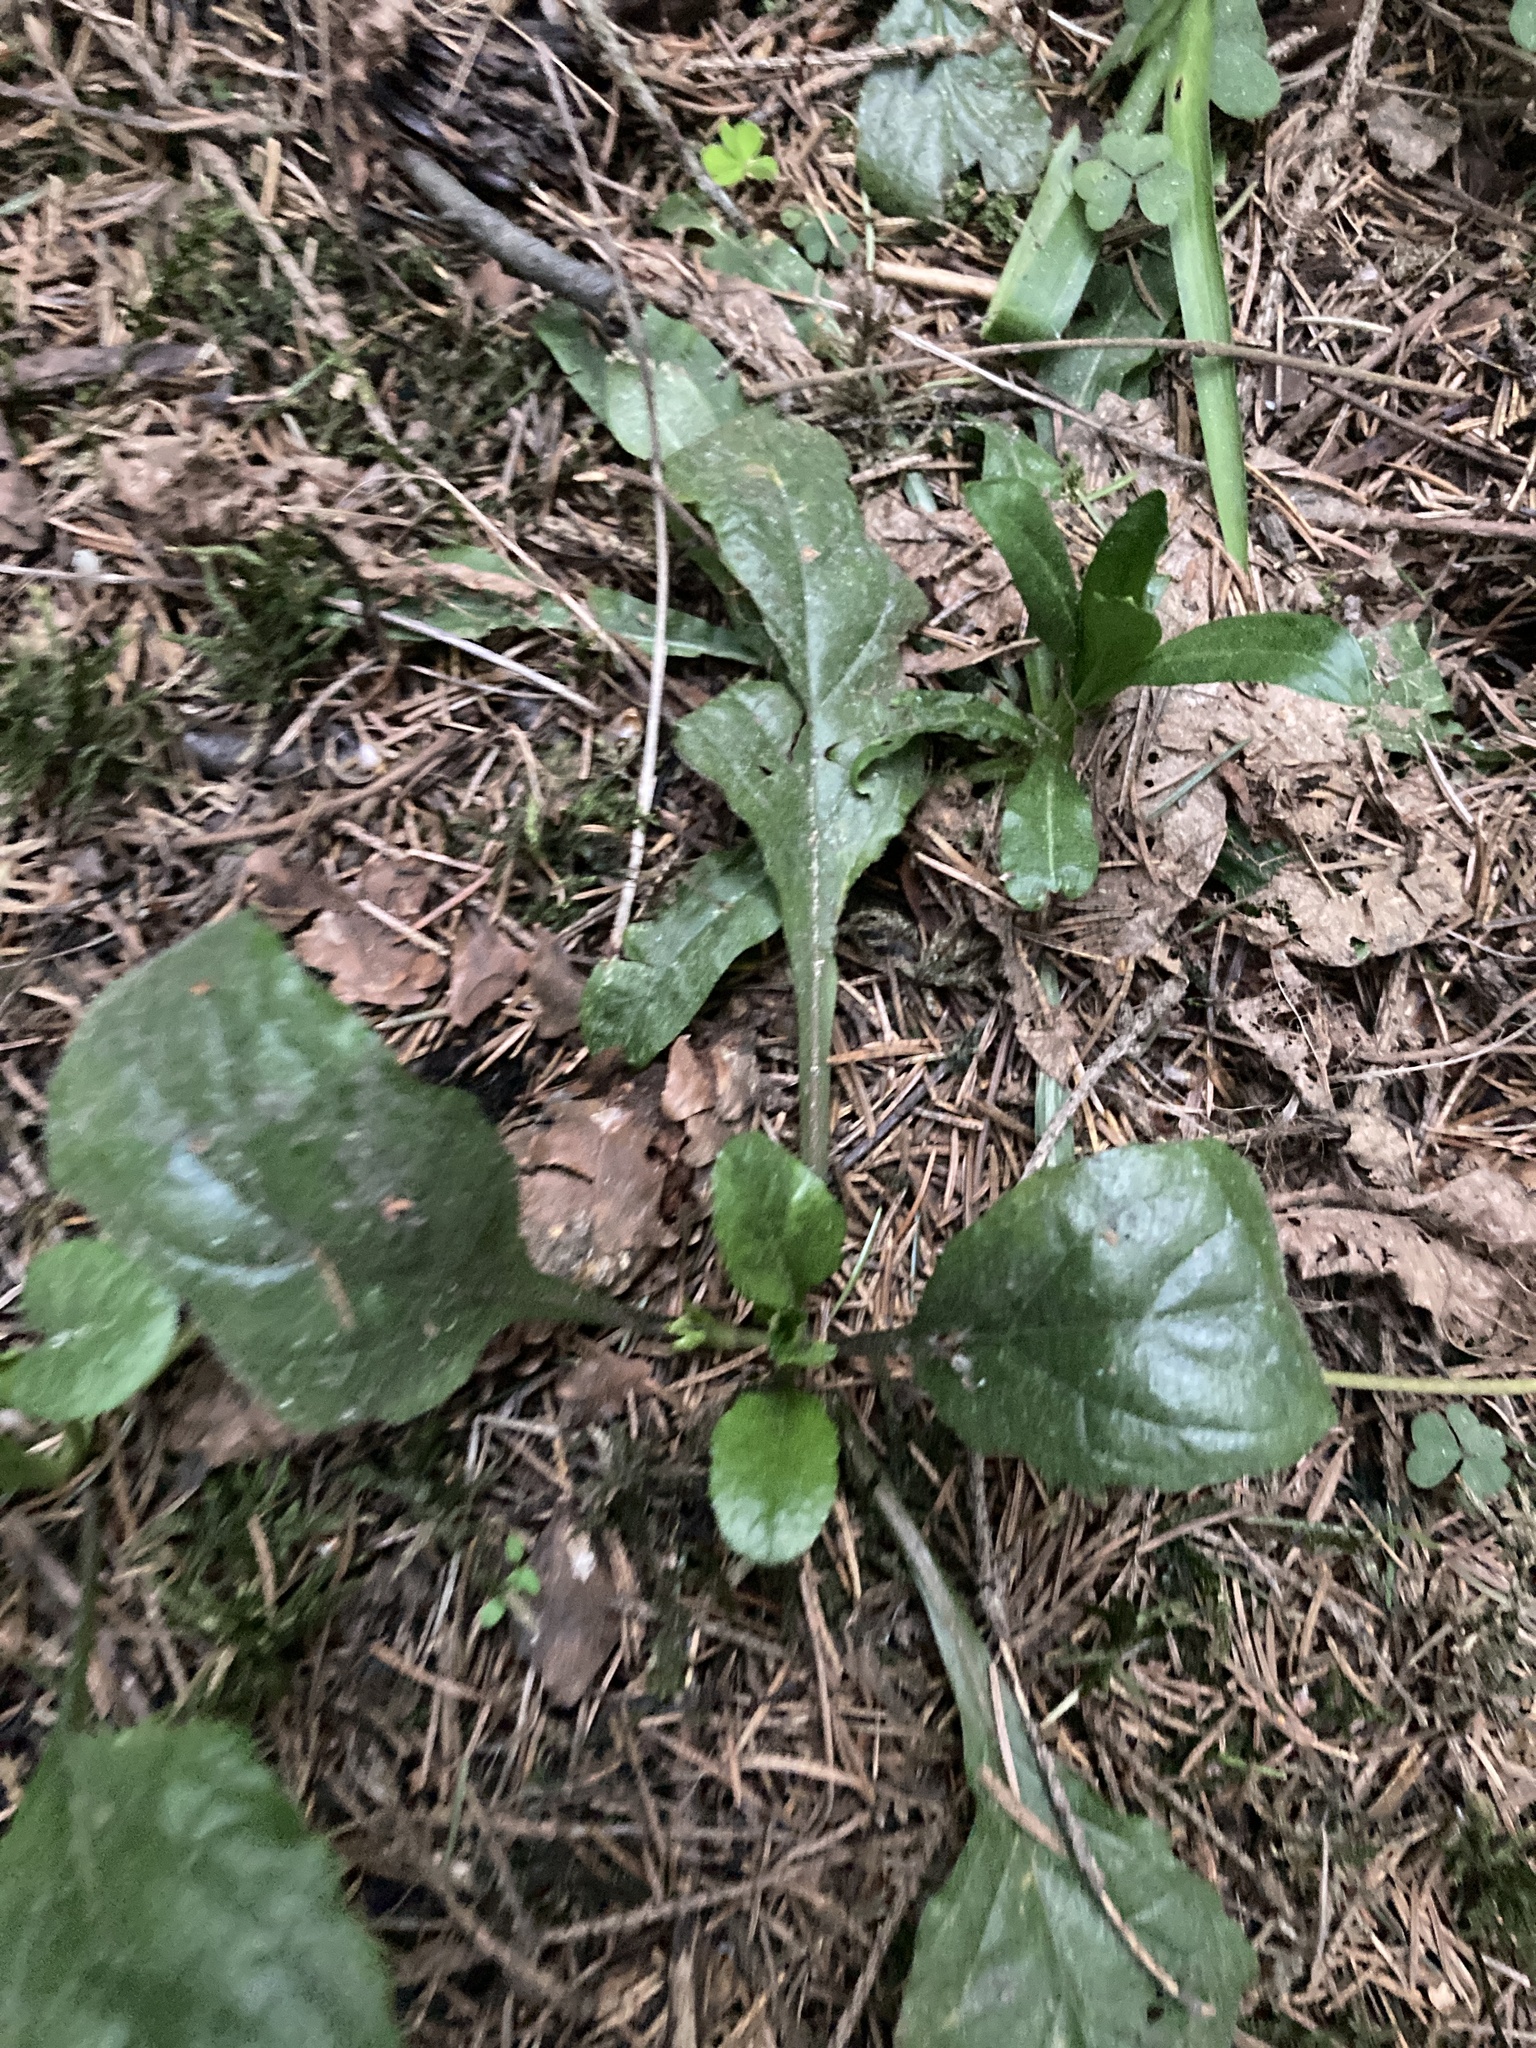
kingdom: Plantae
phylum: Tracheophyta
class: Magnoliopsida
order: Lamiales
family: Lamiaceae
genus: Ajuga
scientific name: Ajuga reptans
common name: Bugle
